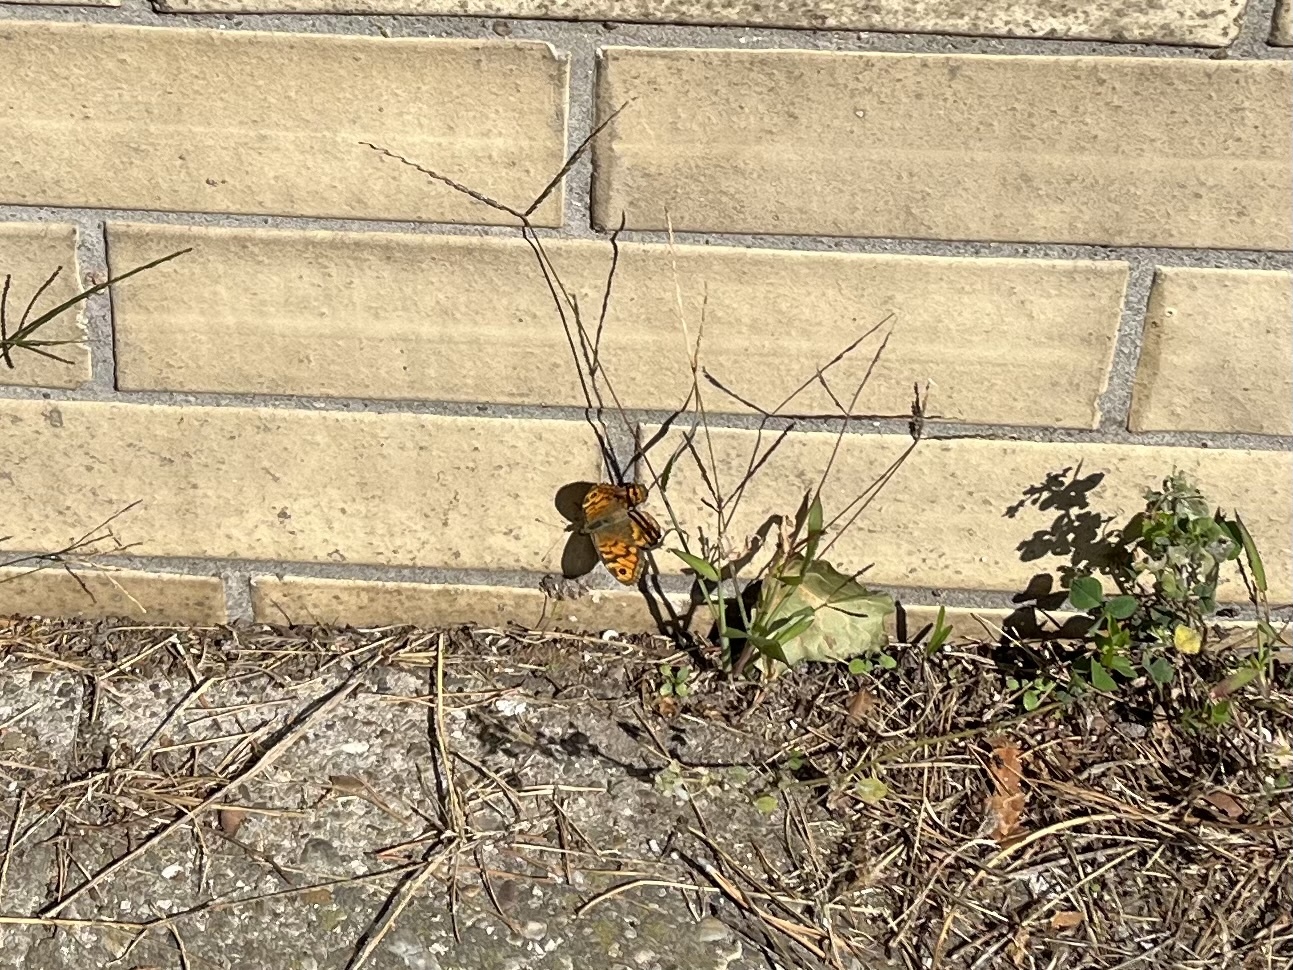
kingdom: Animalia
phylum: Arthropoda
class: Insecta
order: Lepidoptera
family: Nymphalidae
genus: Pararge
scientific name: Pararge Lasiommata megera
